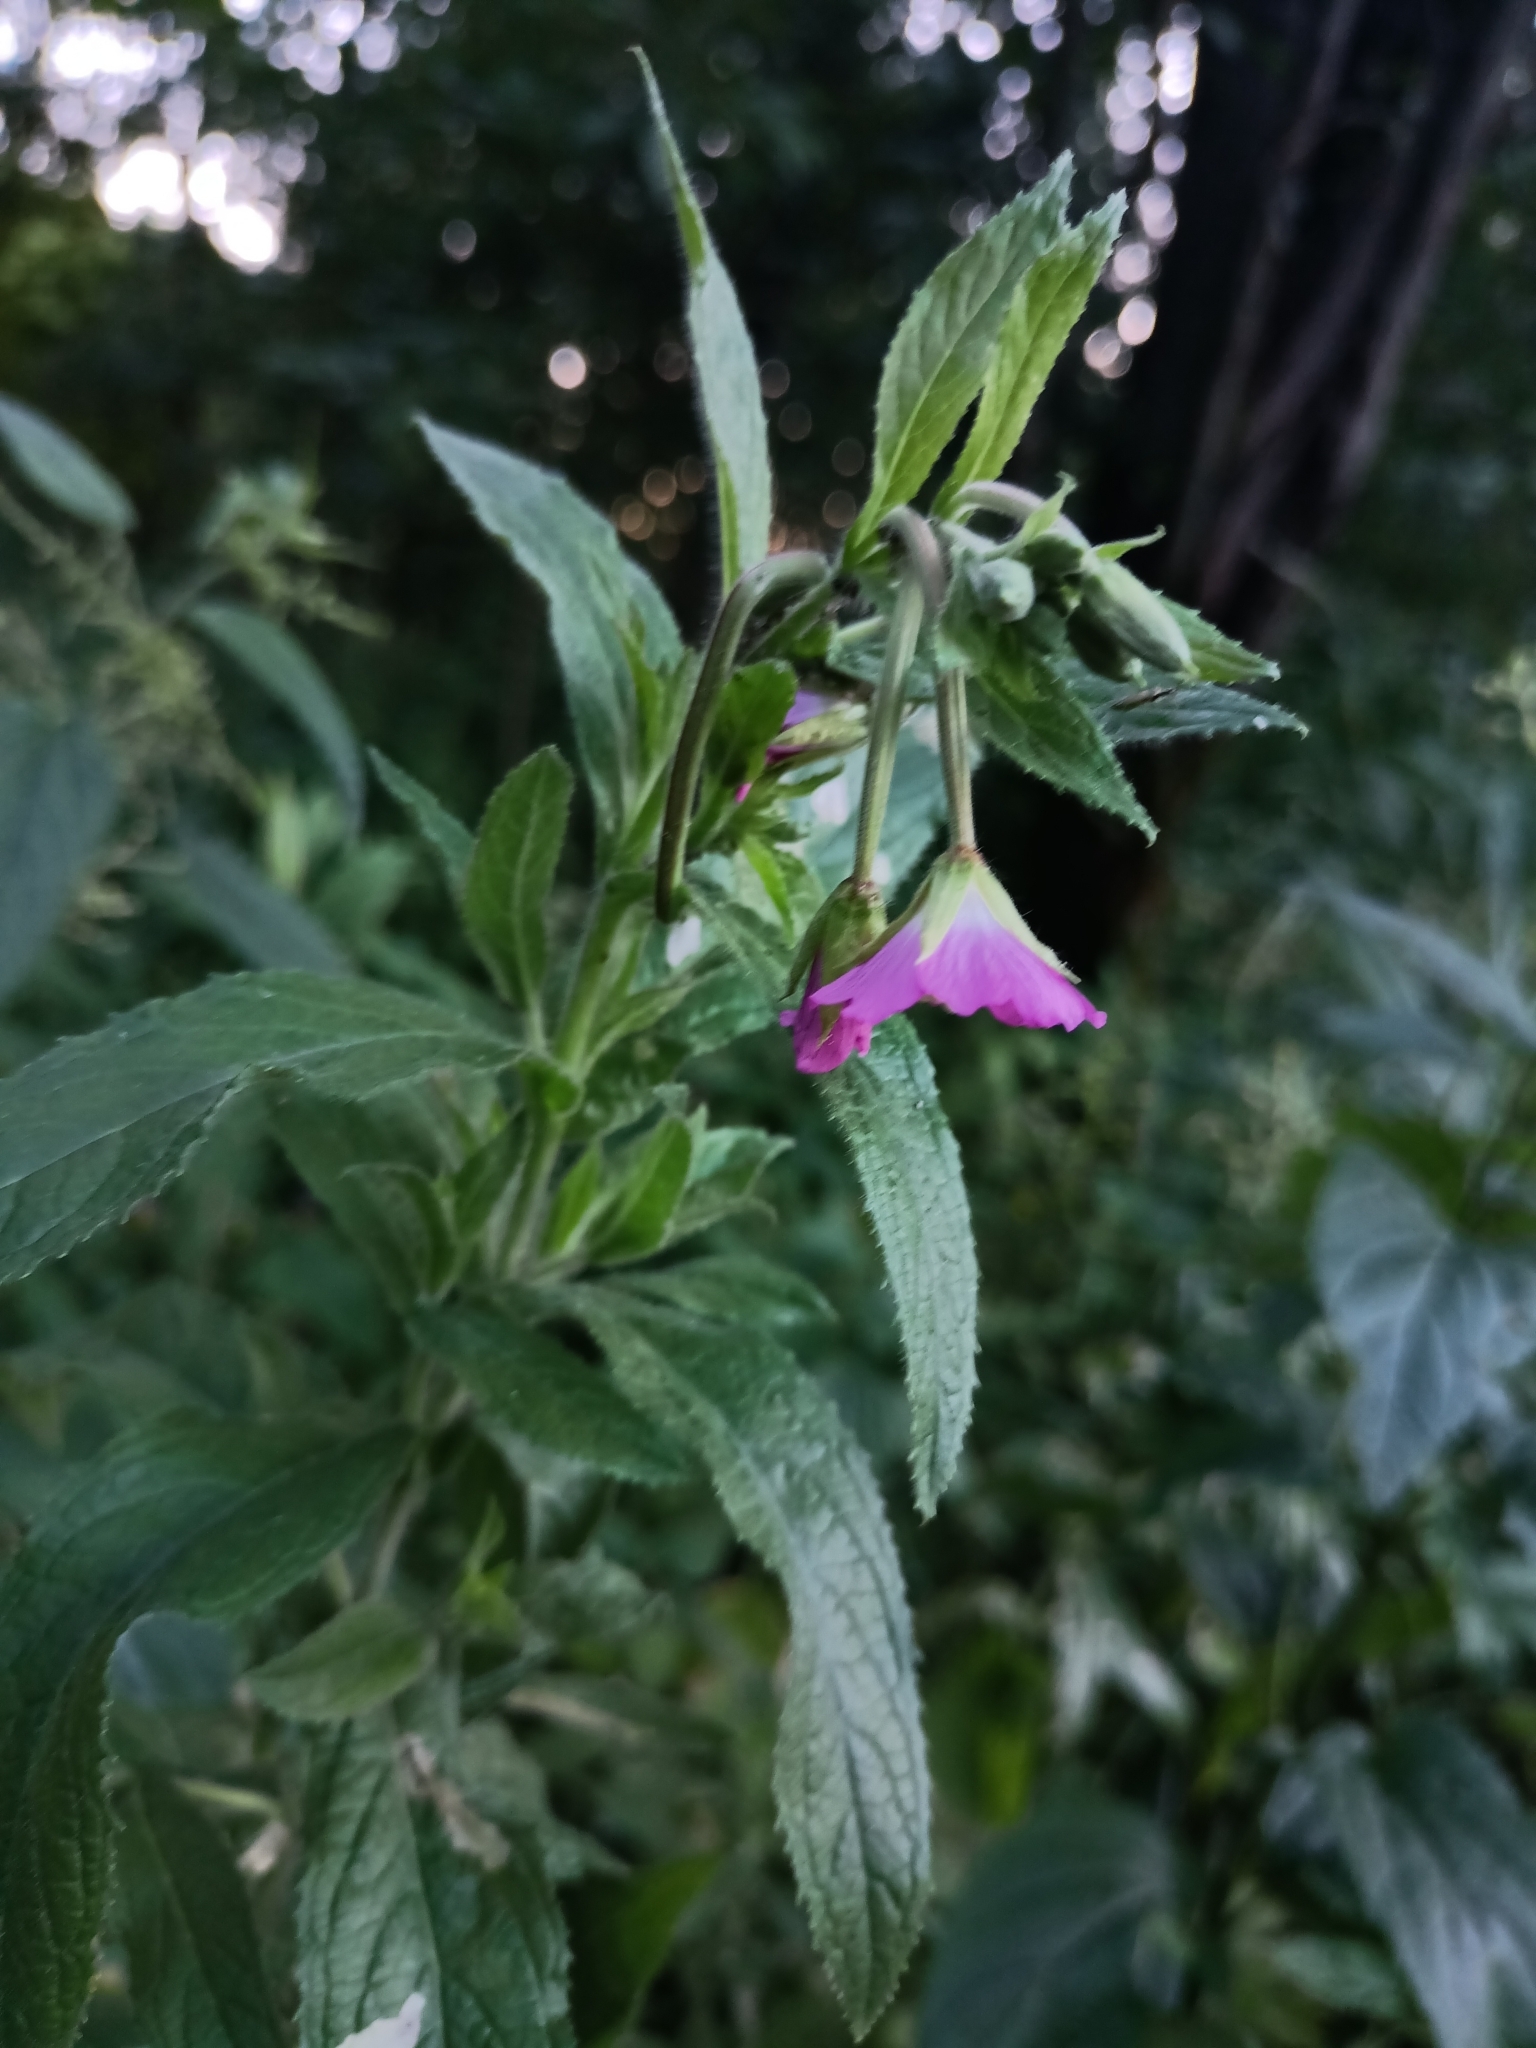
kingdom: Plantae
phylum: Tracheophyta
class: Magnoliopsida
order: Myrtales
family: Onagraceae
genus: Epilobium
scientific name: Epilobium hirsutum
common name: Great willowherb
